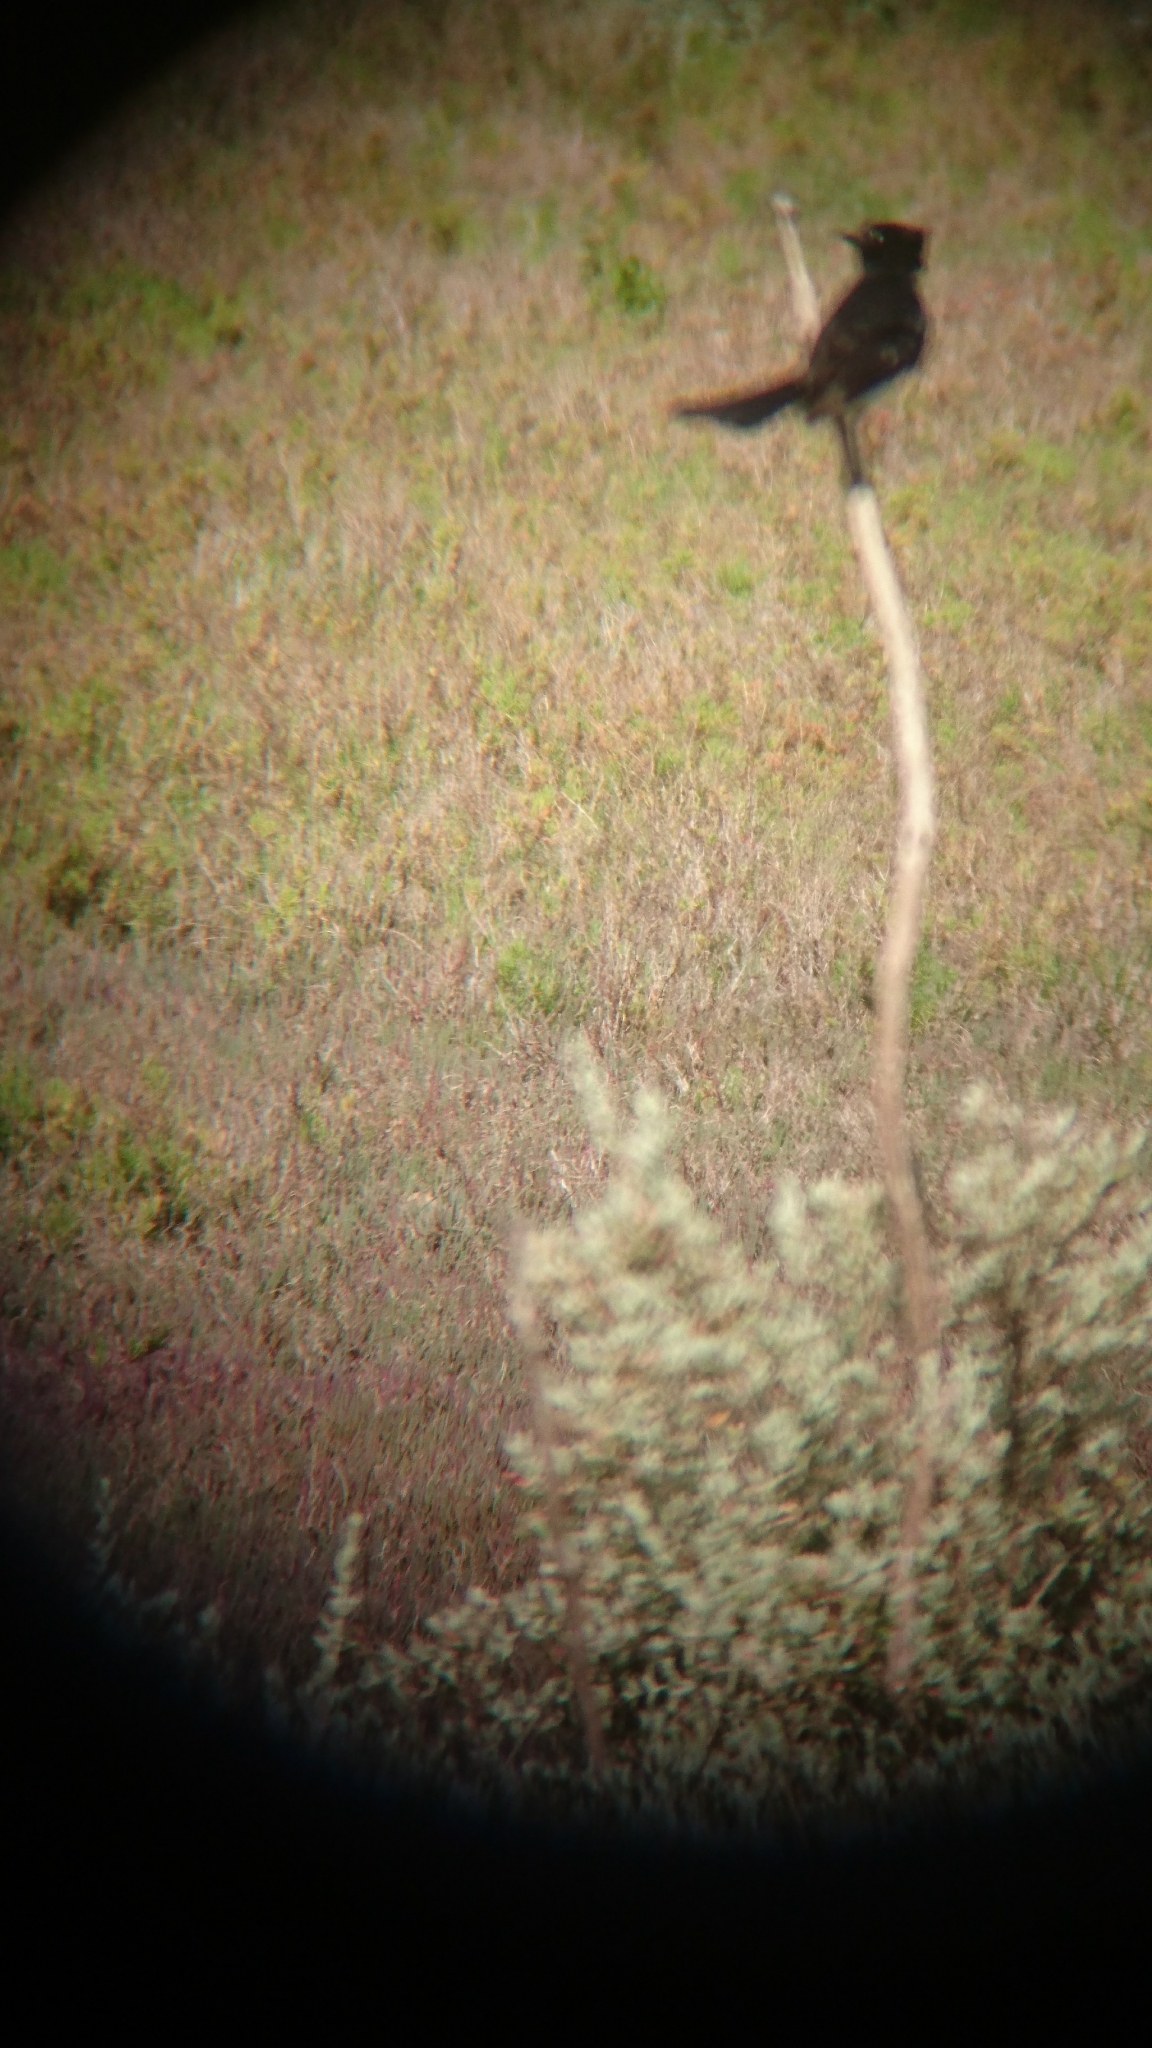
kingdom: Animalia
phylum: Chordata
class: Aves
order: Passeriformes
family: Rhipiduridae
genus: Rhipidura
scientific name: Rhipidura leucophrys
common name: Willie wagtail
